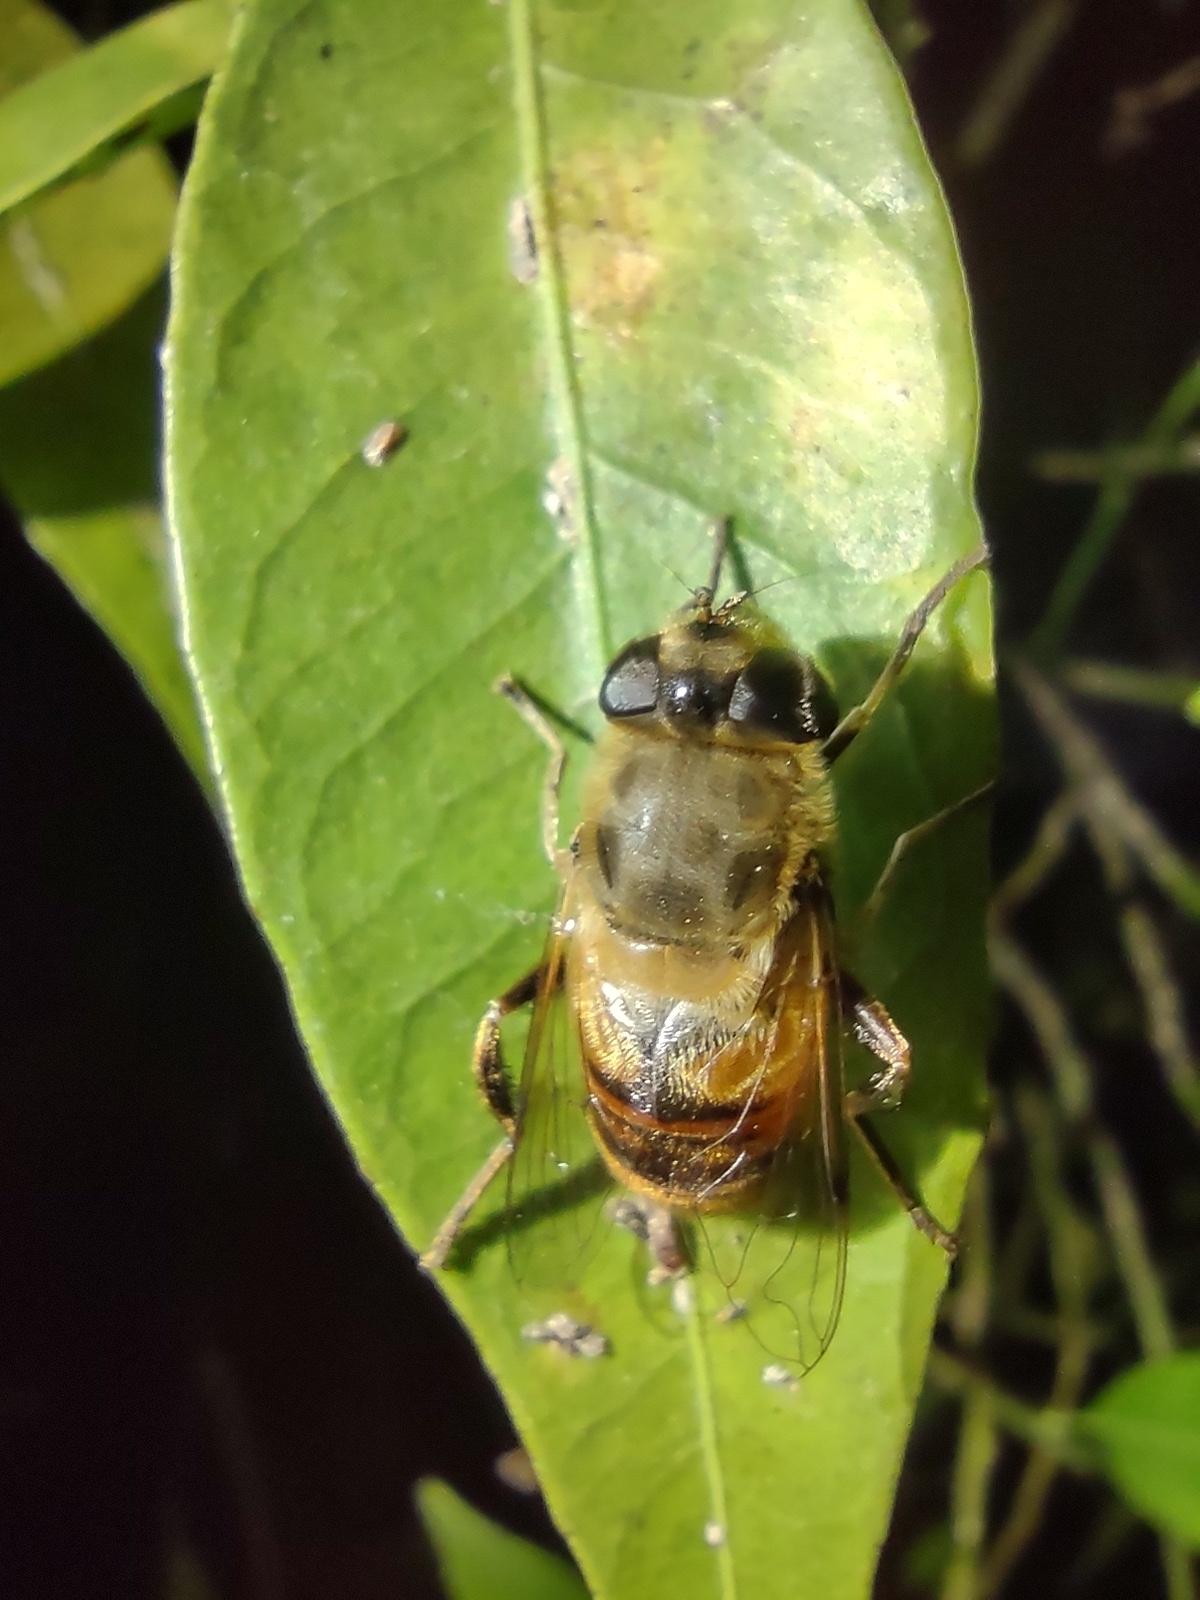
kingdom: Animalia
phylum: Arthropoda
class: Insecta
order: Diptera
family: Syrphidae
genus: Eristalis
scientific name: Eristalis tenax
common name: Drone fly
